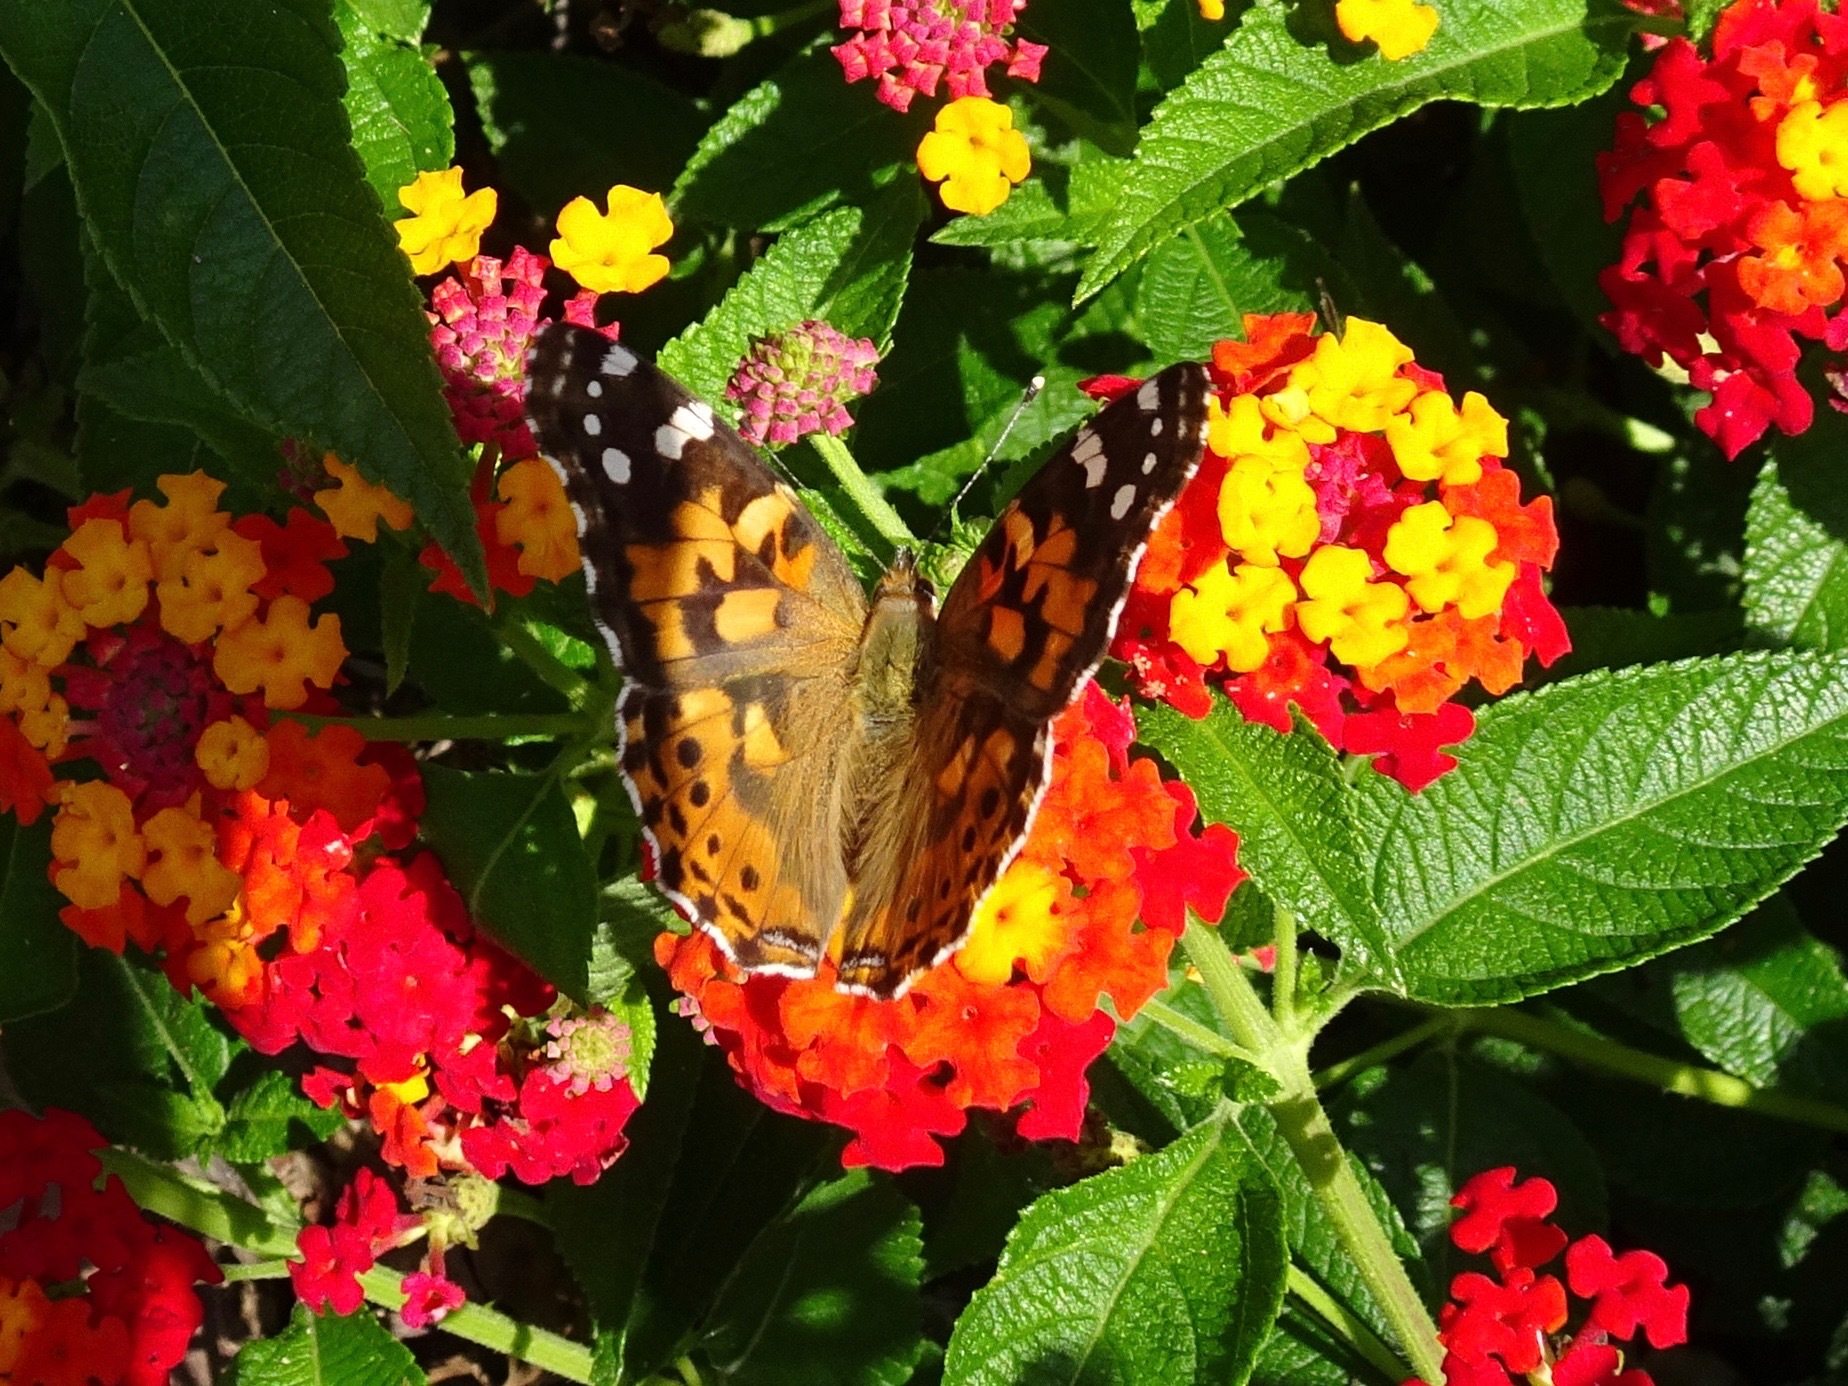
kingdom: Animalia
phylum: Arthropoda
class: Insecta
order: Lepidoptera
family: Nymphalidae
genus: Vanessa
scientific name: Vanessa cardui
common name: Painted lady
